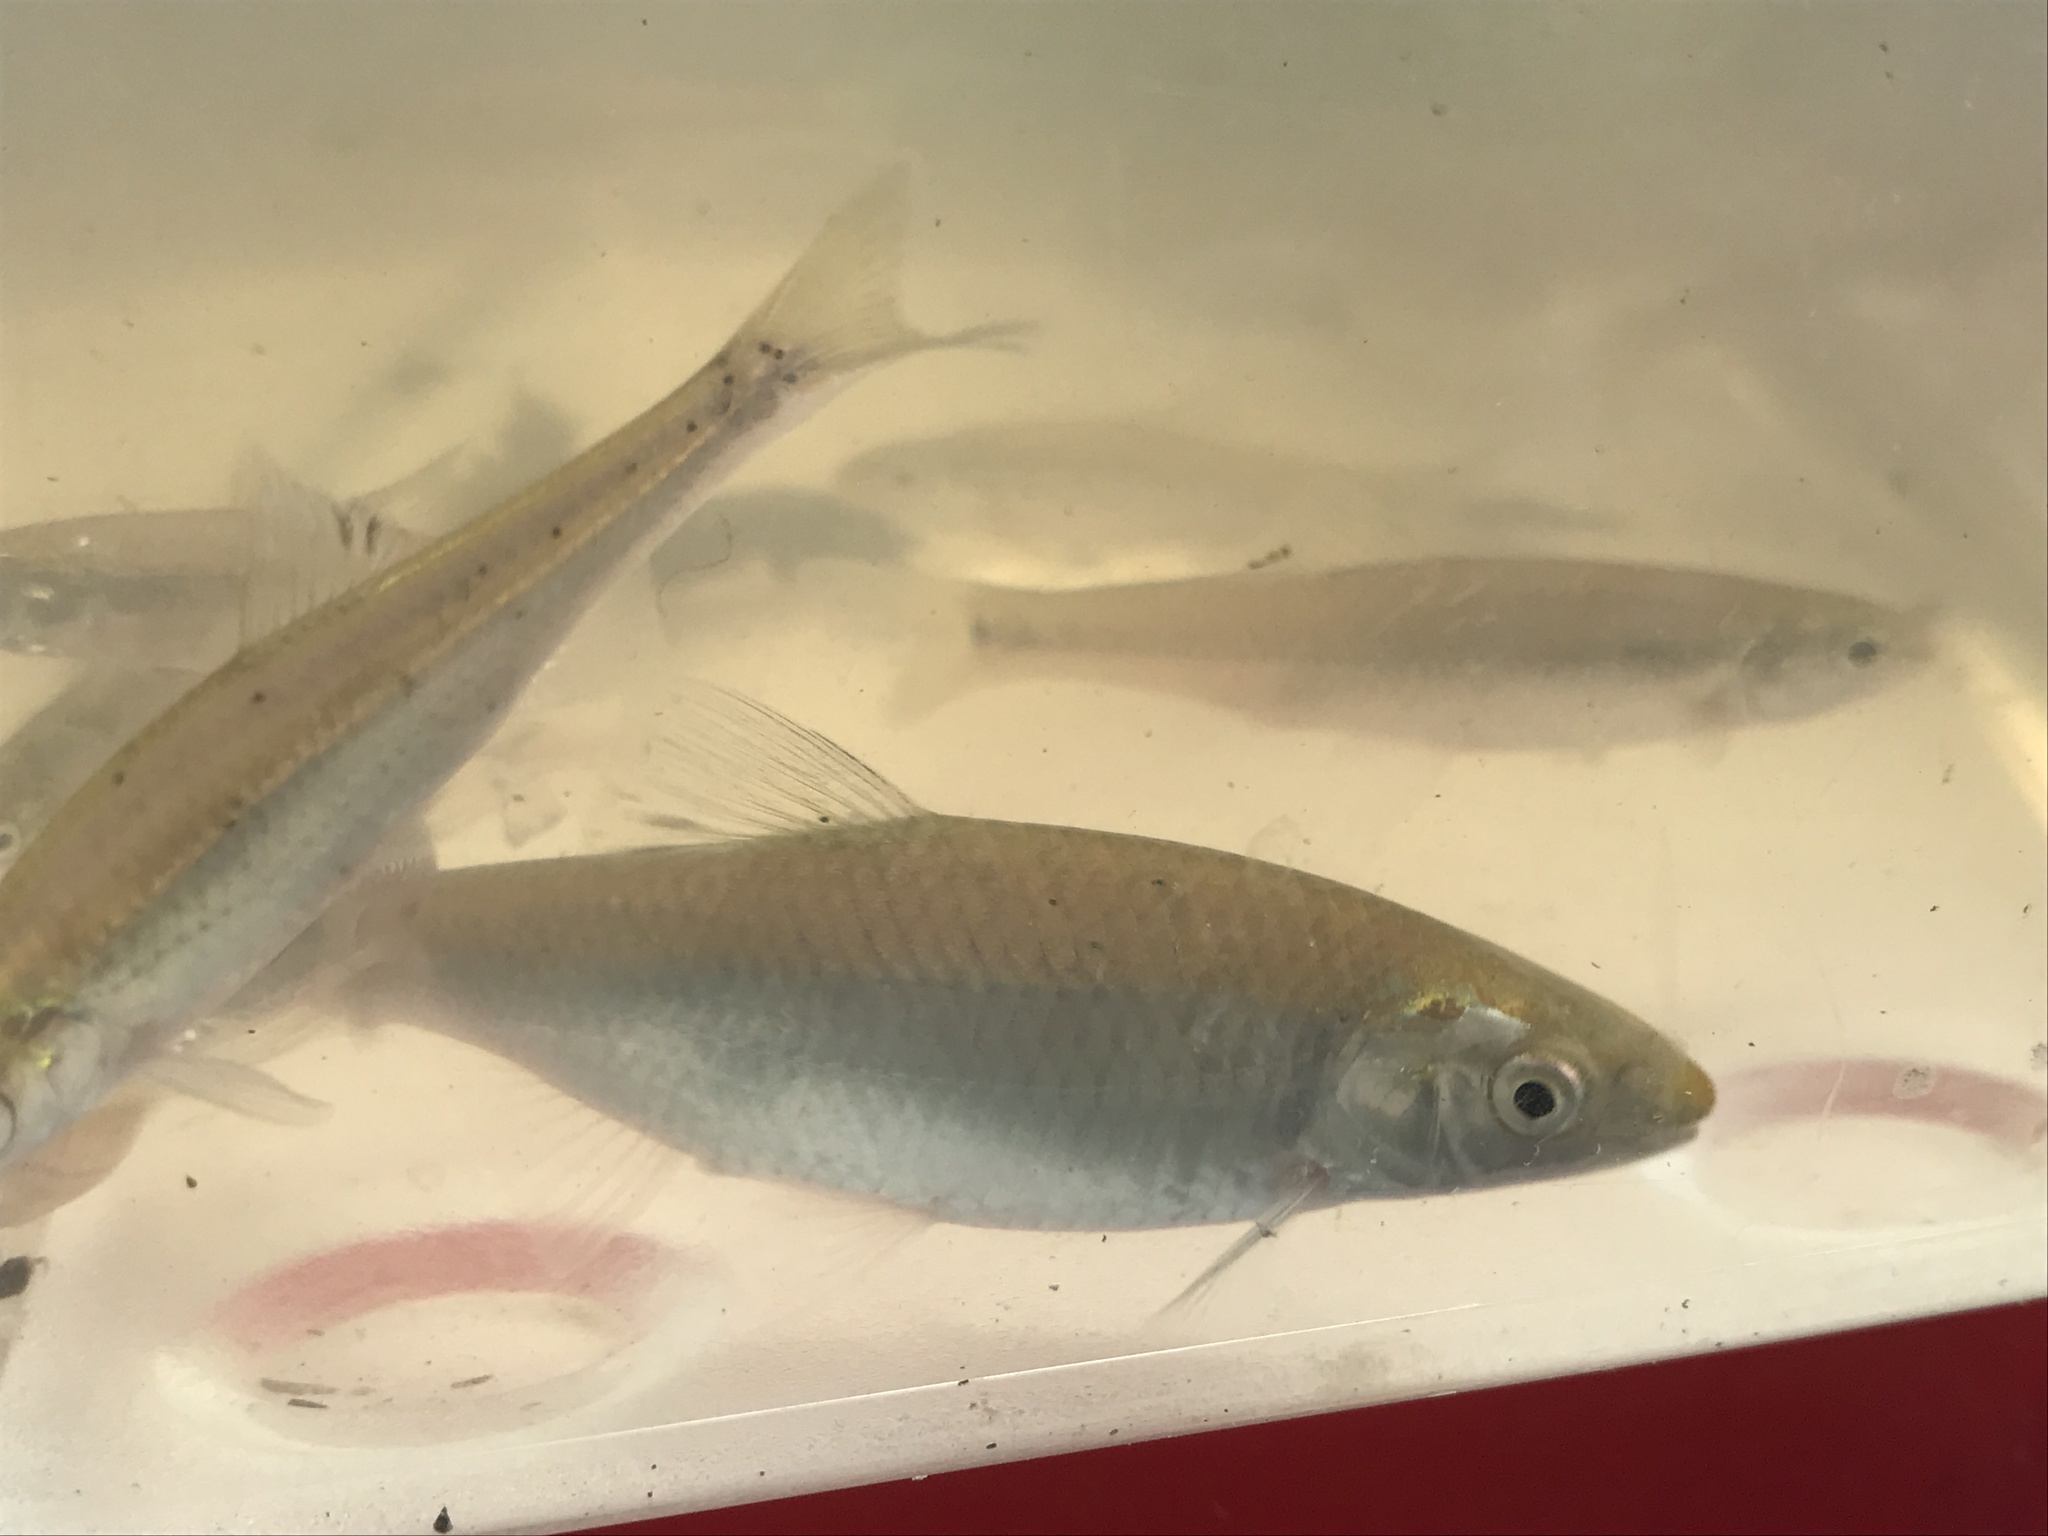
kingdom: Animalia
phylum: Chordata
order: Cypriniformes
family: Cyprinidae
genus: Cyprinella
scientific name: Cyprinella spiloptera
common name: Spotfin shiner
